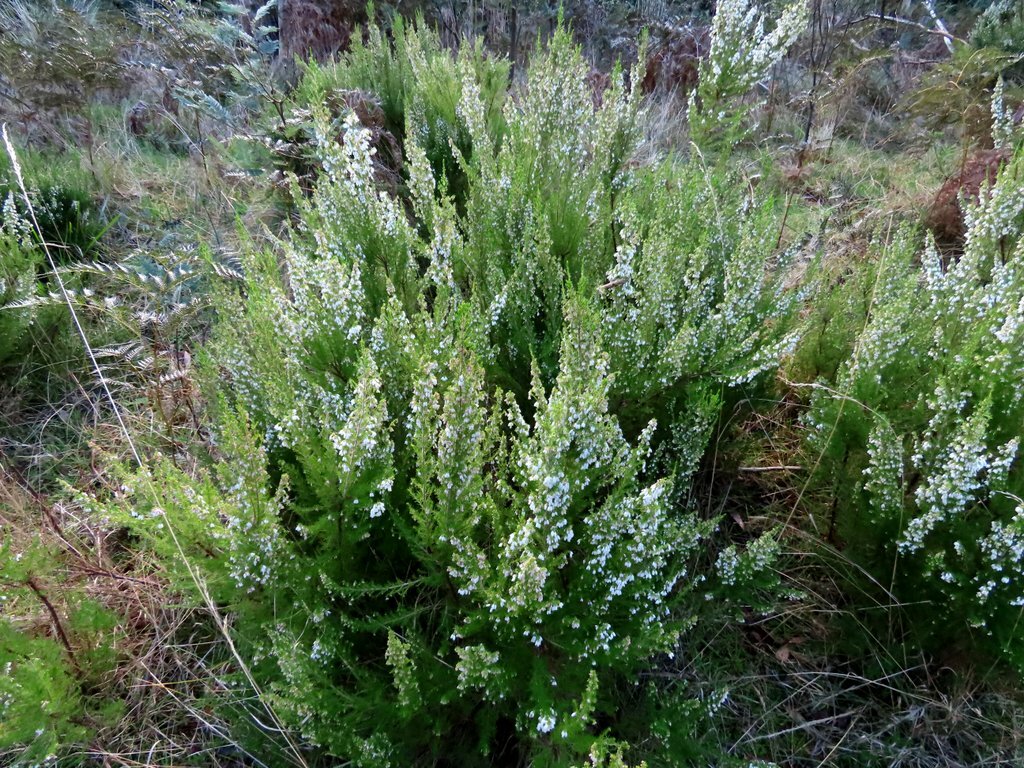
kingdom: Plantae
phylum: Tracheophyta
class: Magnoliopsida
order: Ericales
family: Ericaceae
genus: Erica
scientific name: Erica lusitanica
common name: Spanish heath
